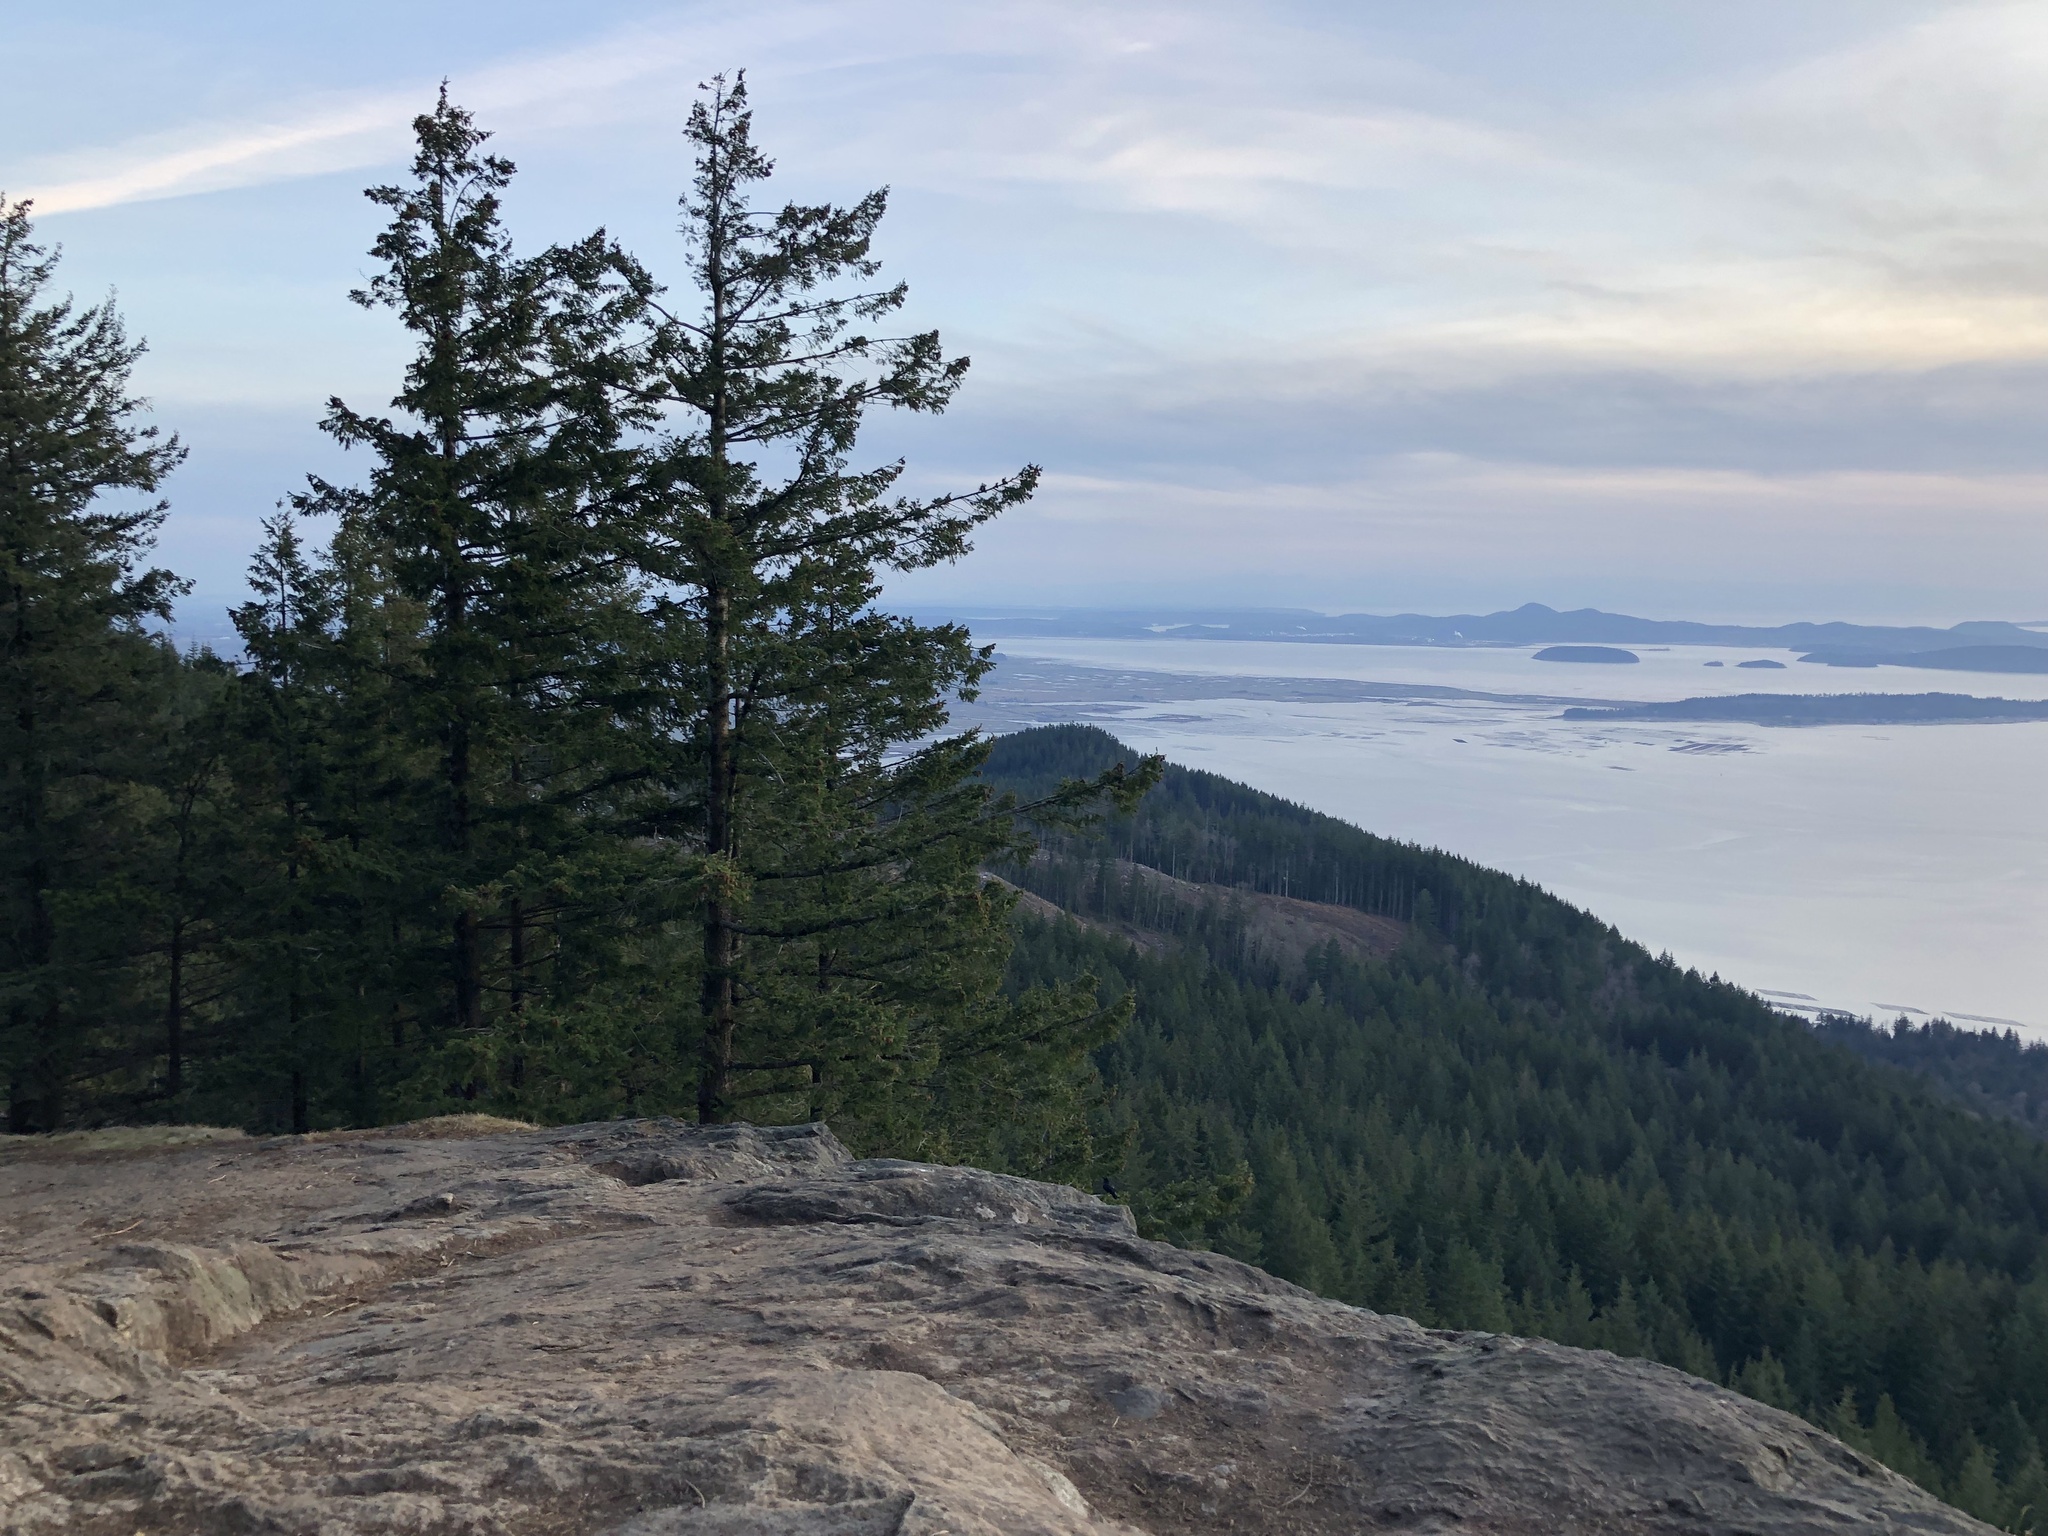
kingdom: Plantae
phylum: Tracheophyta
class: Pinopsida
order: Pinales
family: Pinaceae
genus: Pseudotsuga
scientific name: Pseudotsuga menziesii
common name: Douglas fir
